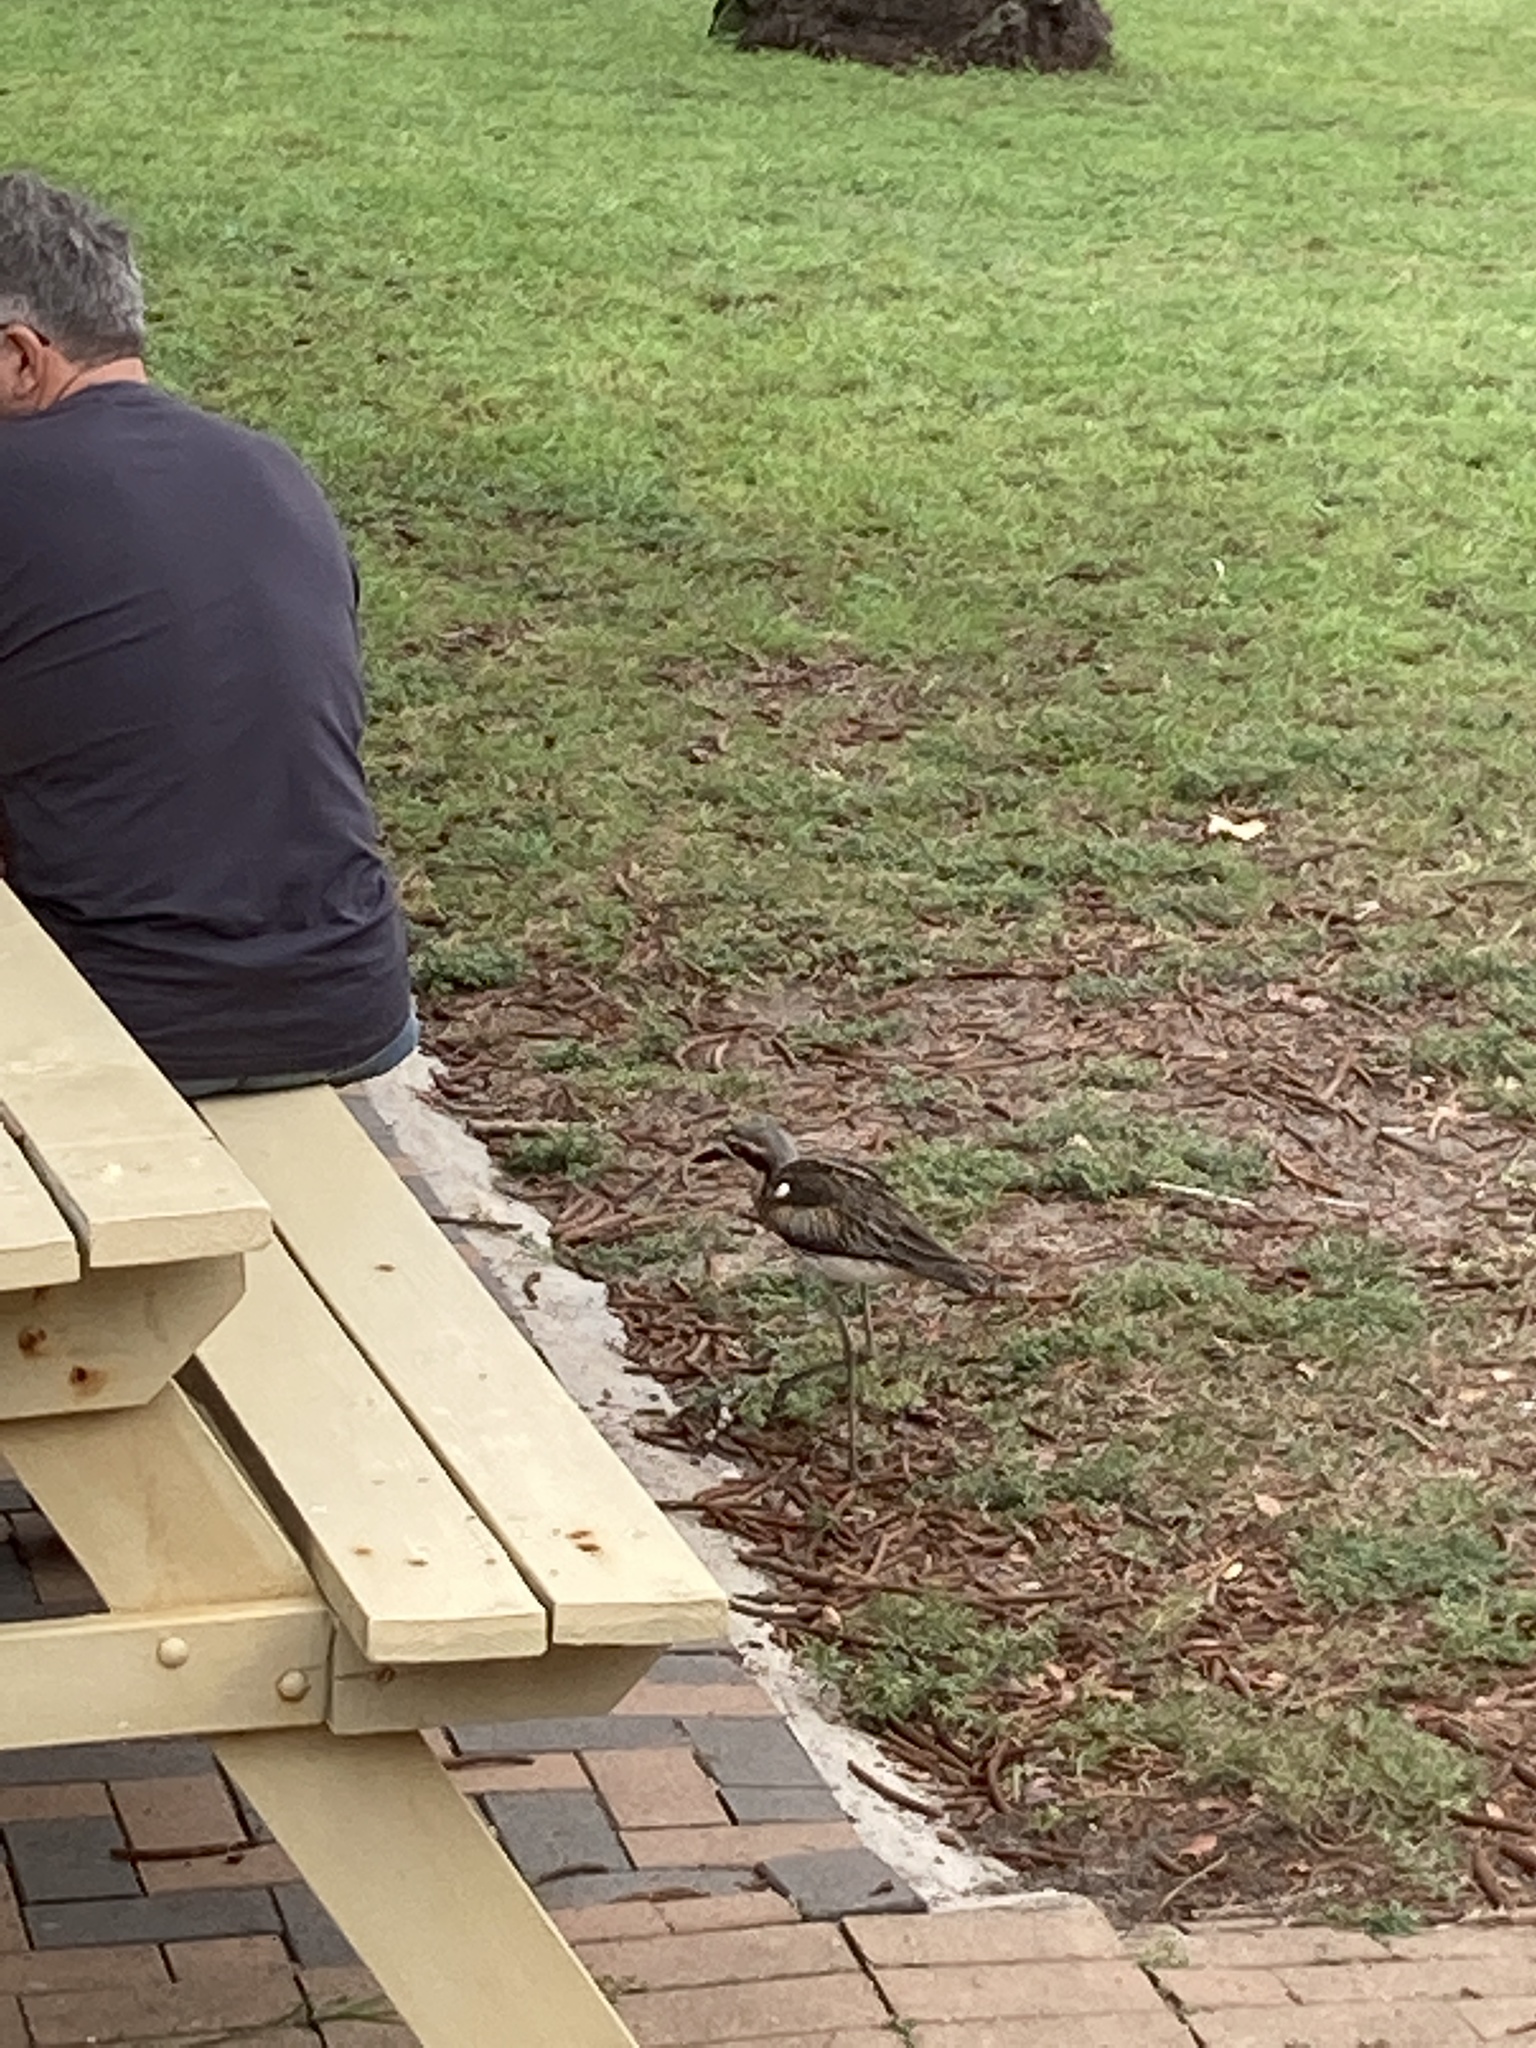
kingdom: Animalia
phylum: Chordata
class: Aves
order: Charadriiformes
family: Burhinidae
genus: Burhinus
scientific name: Burhinus grallarius
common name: Bush stone-curlew
